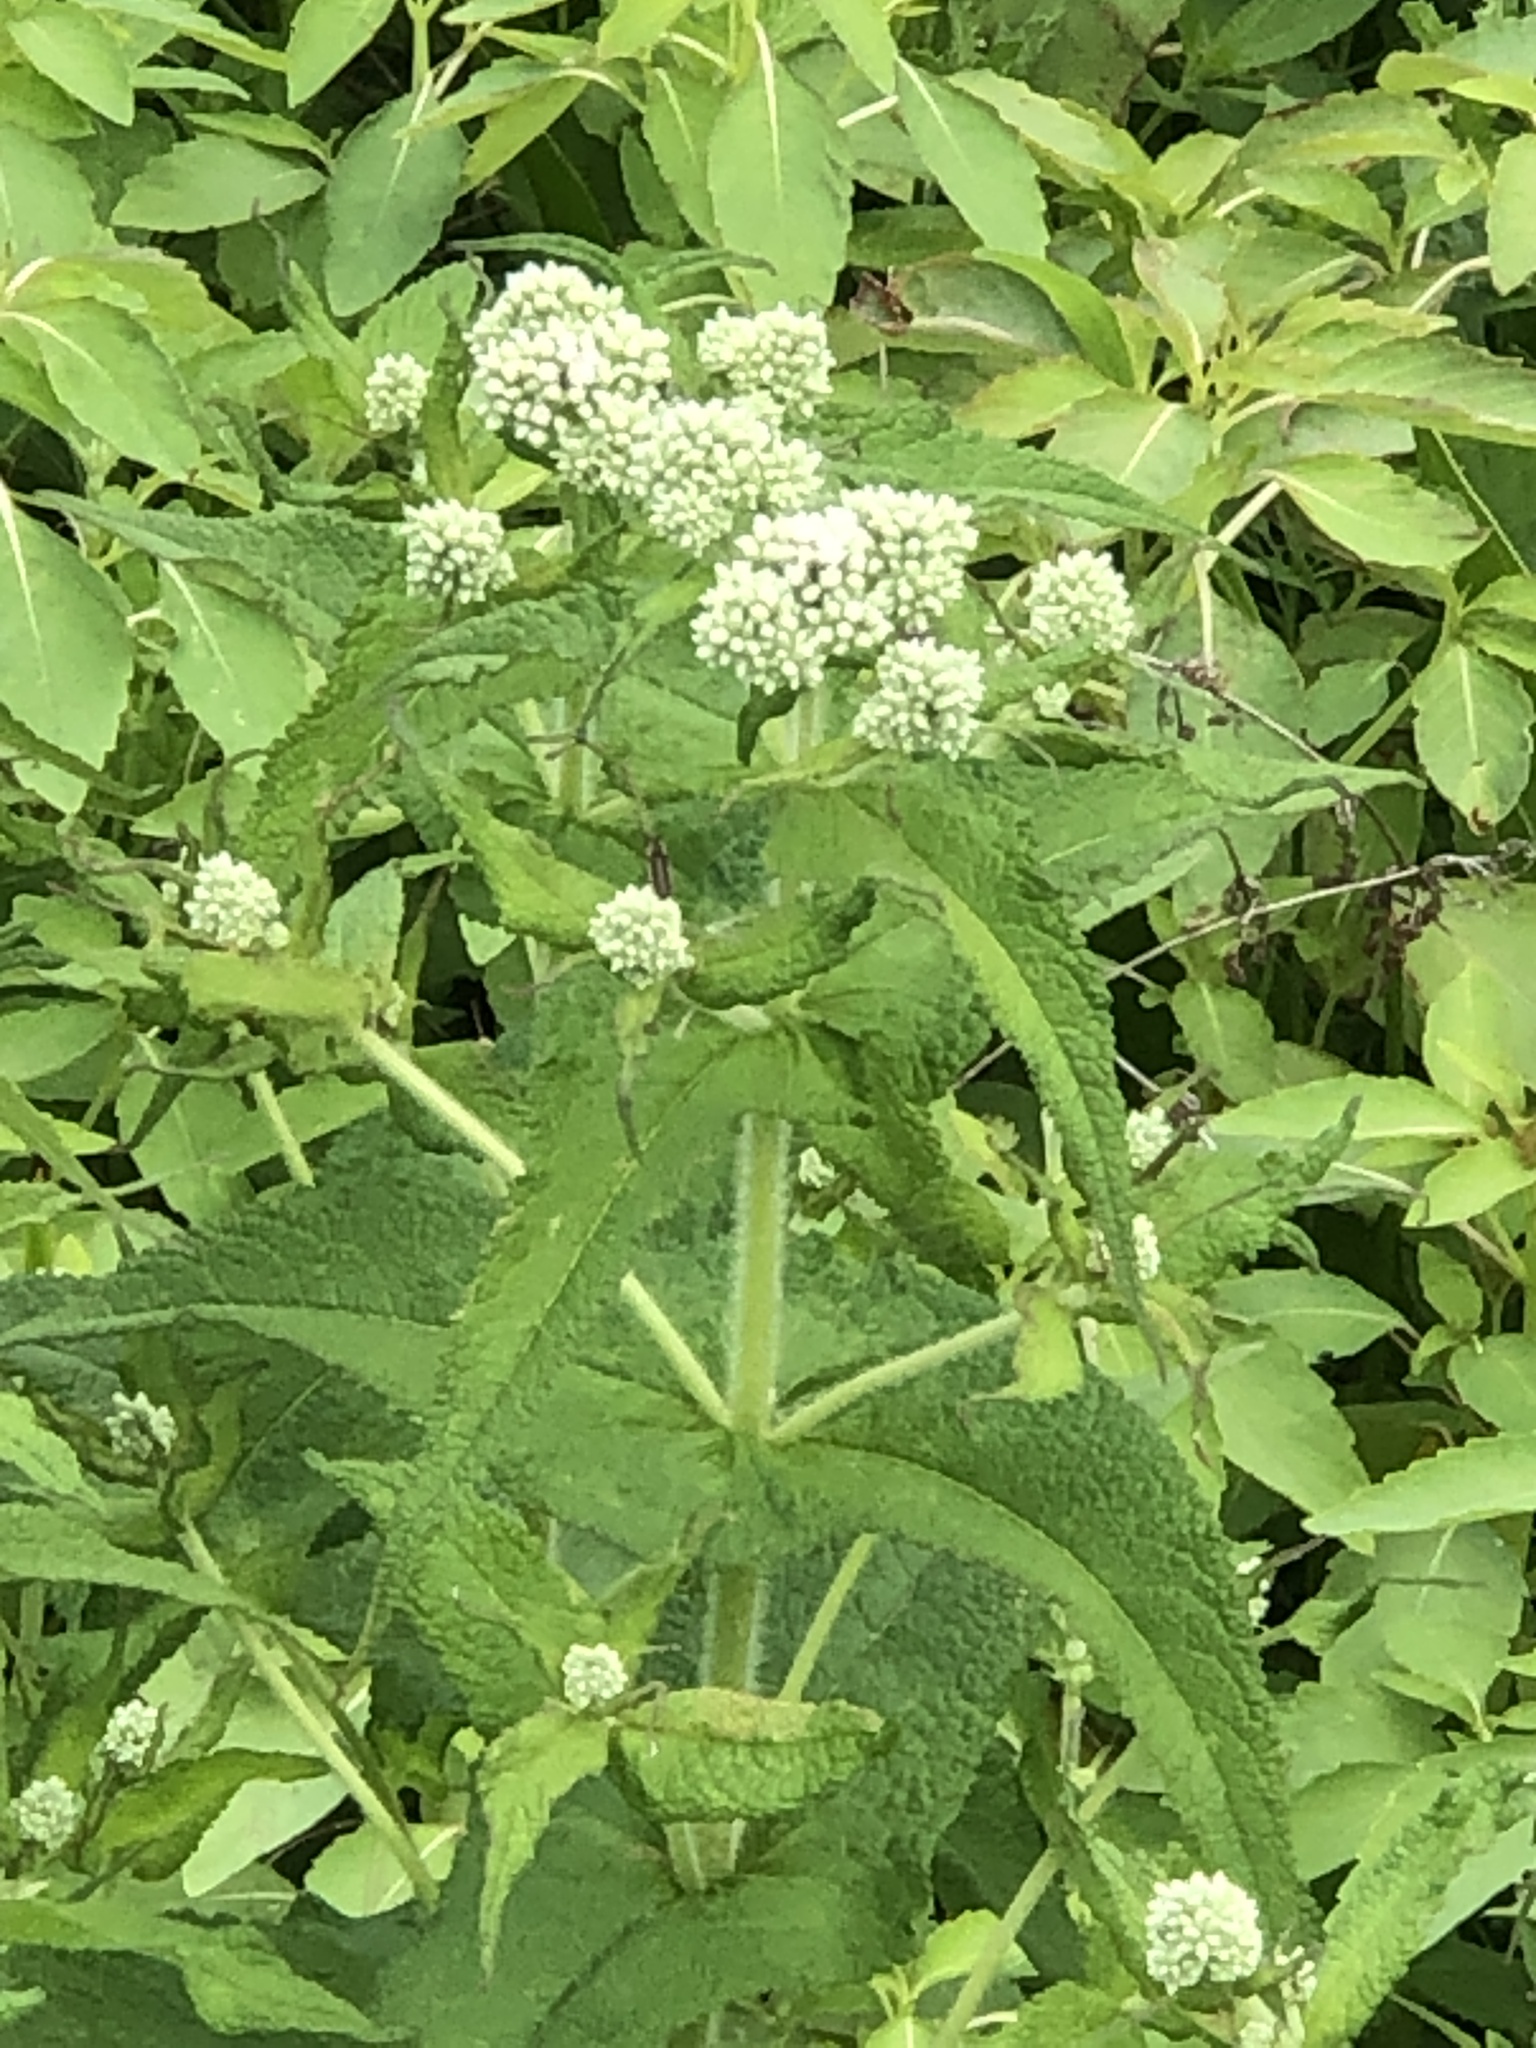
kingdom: Plantae
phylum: Tracheophyta
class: Magnoliopsida
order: Asterales
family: Asteraceae
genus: Eupatorium
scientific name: Eupatorium perfoliatum
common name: Boneset
